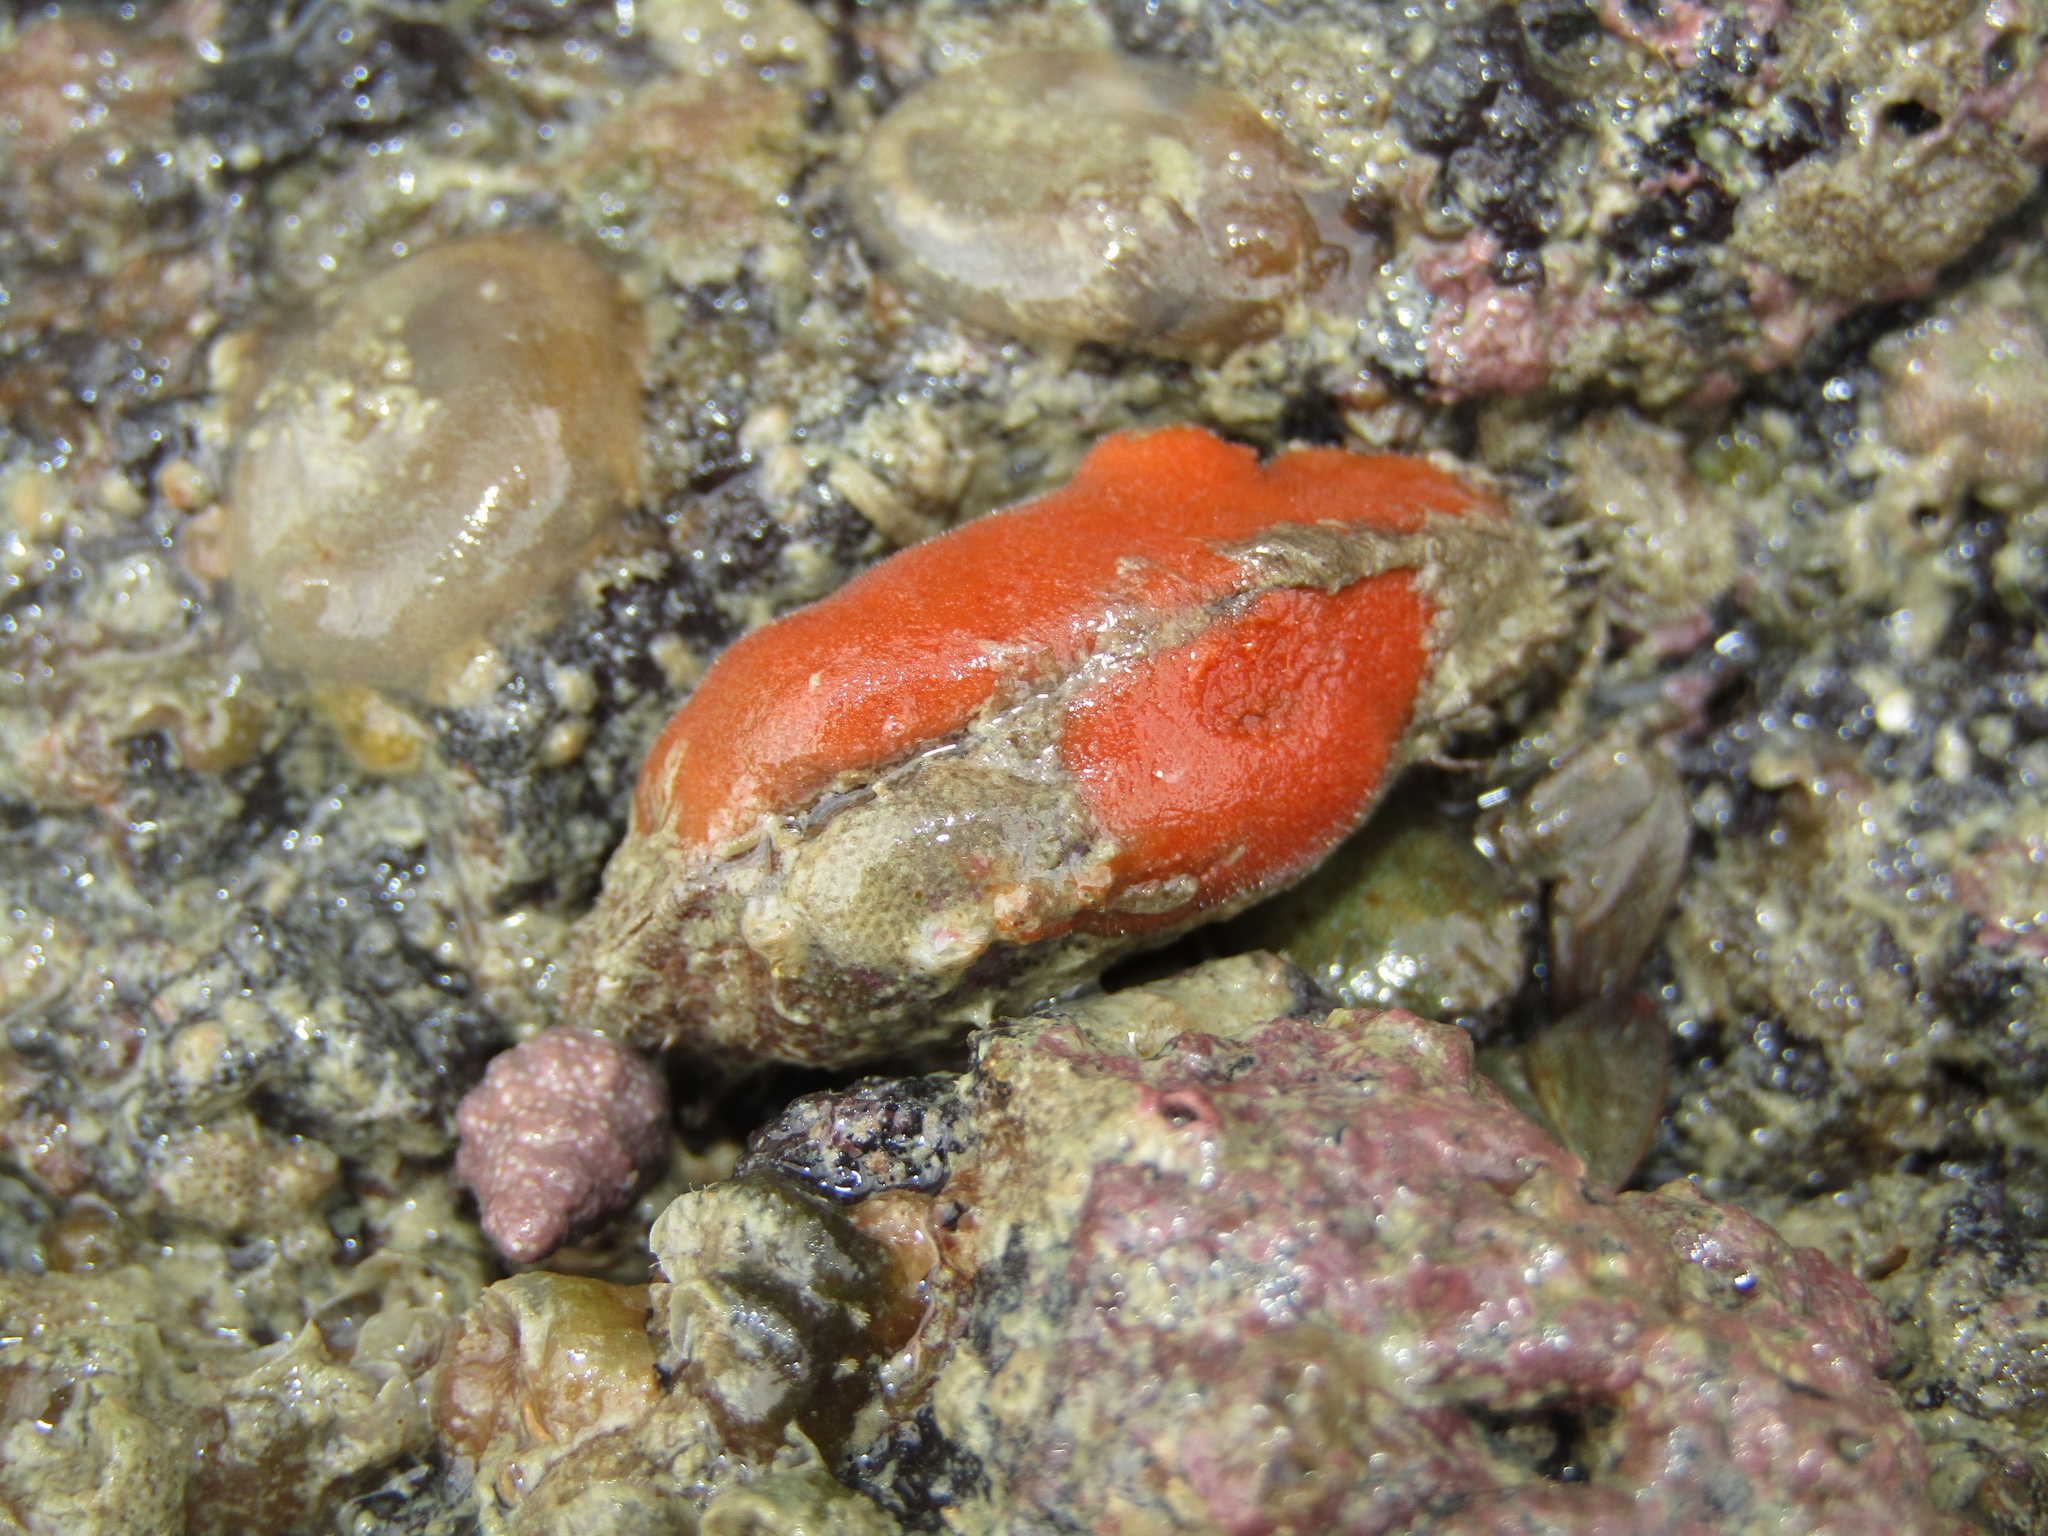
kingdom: Animalia
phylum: Mollusca
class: Bivalvia
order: Arcida
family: Arcidae
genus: Barbatia
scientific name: Barbatia novaezealandiae
